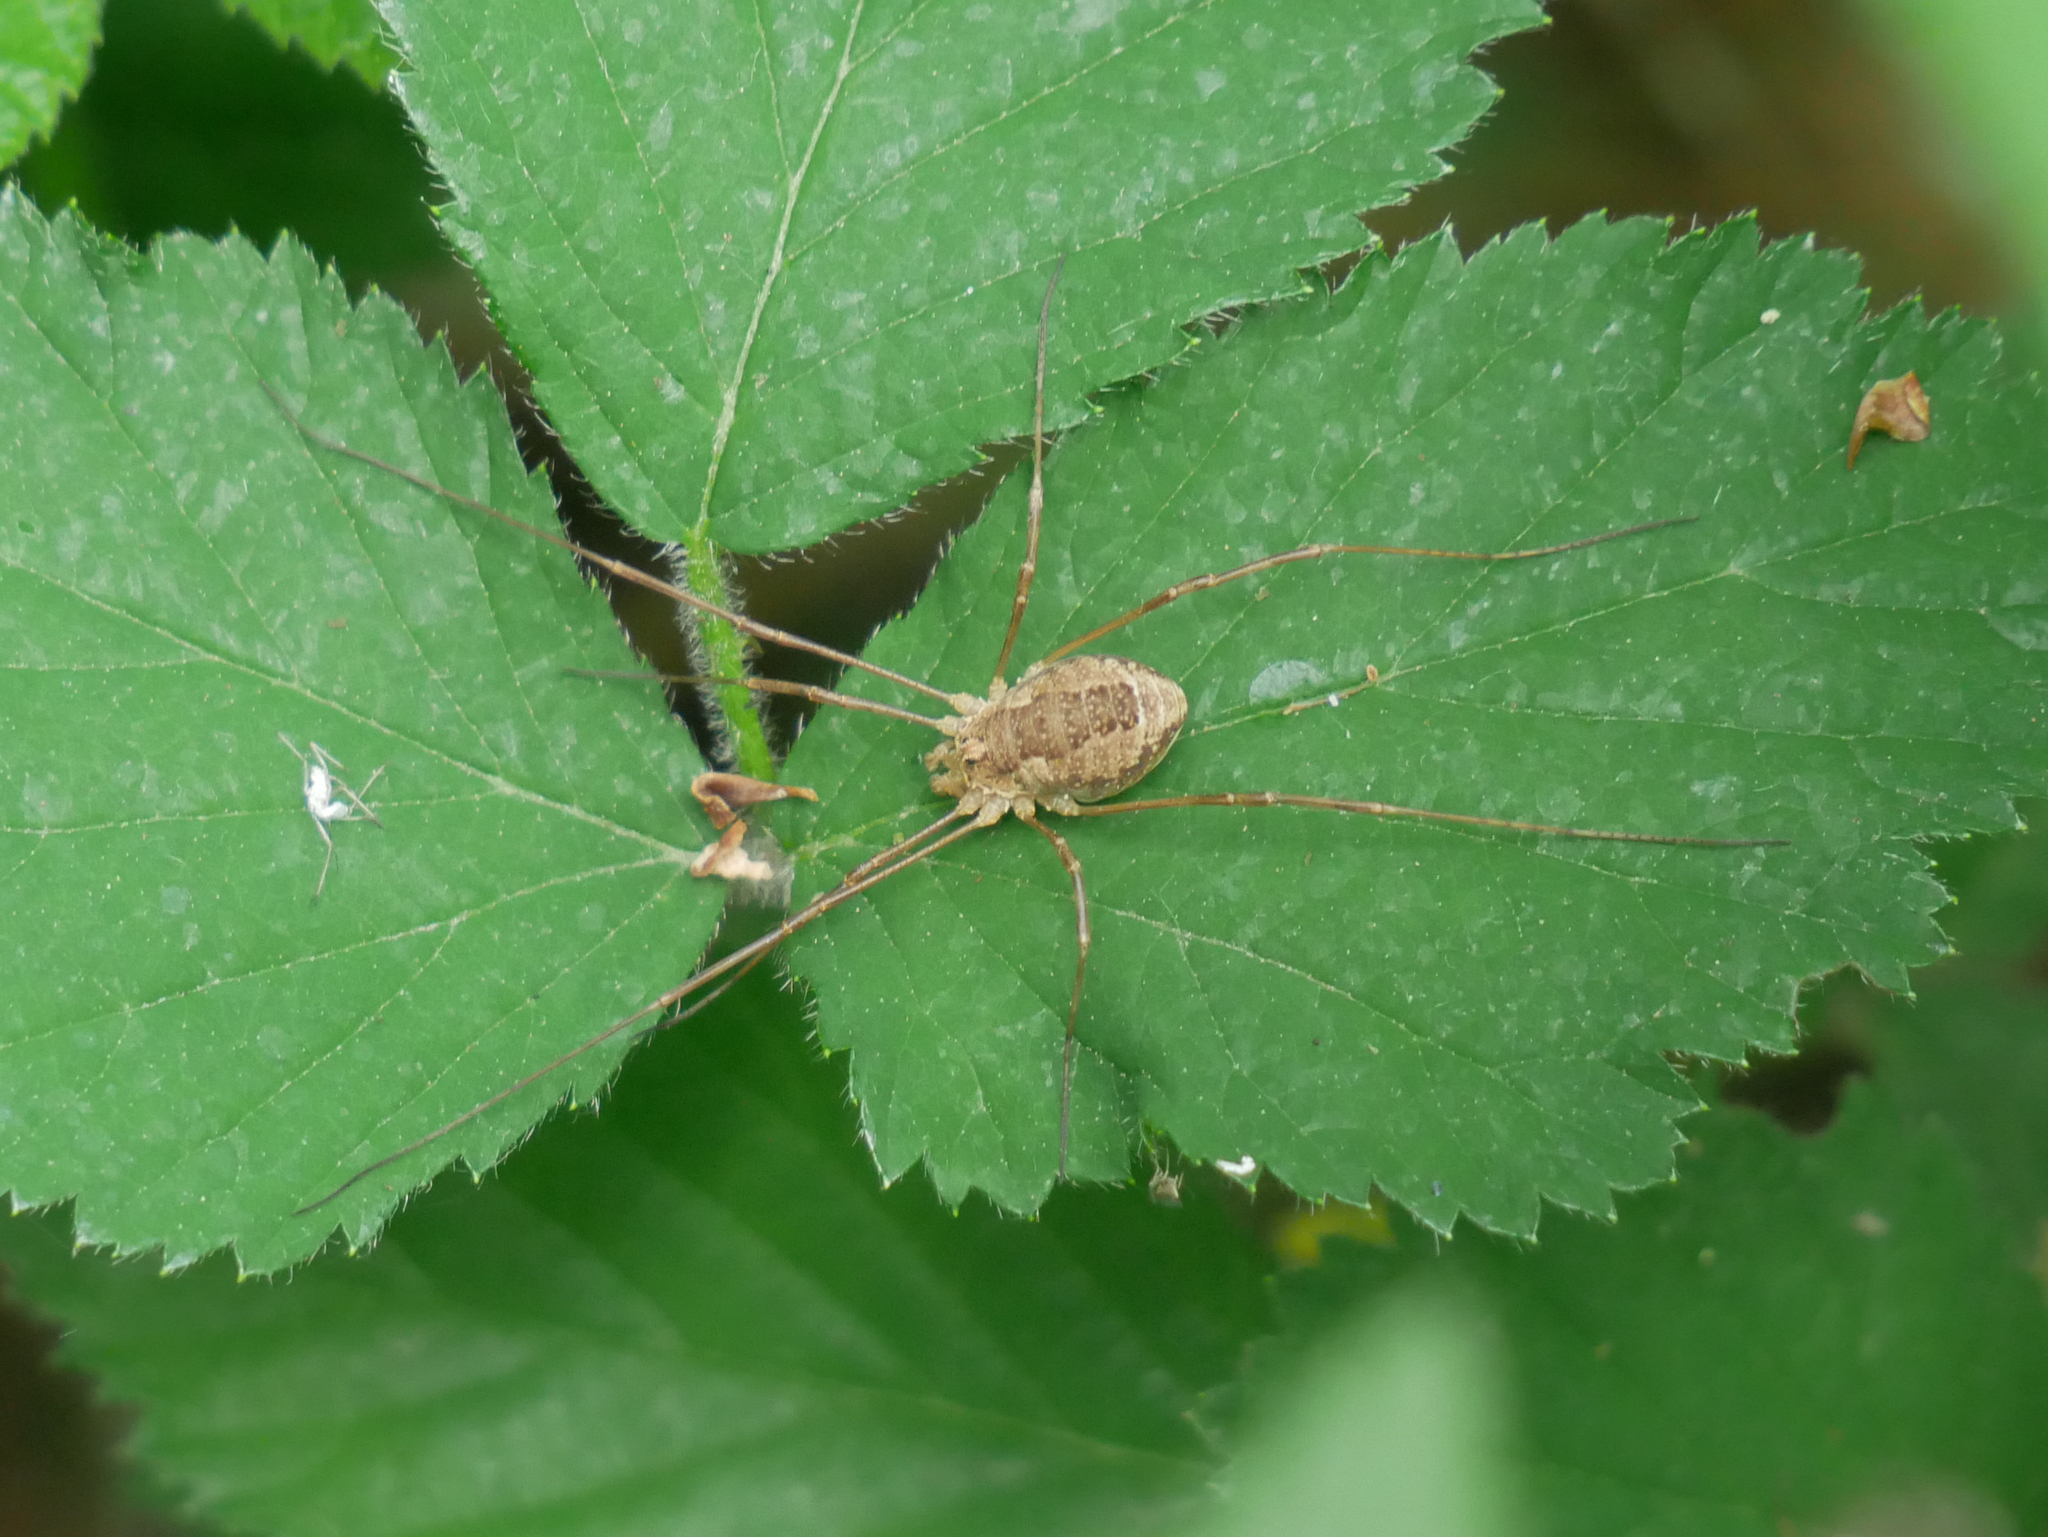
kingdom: Animalia
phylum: Arthropoda
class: Arachnida
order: Opiliones
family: Phalangiidae
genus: Rilaena
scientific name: Rilaena triangularis
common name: Spring harvestman
